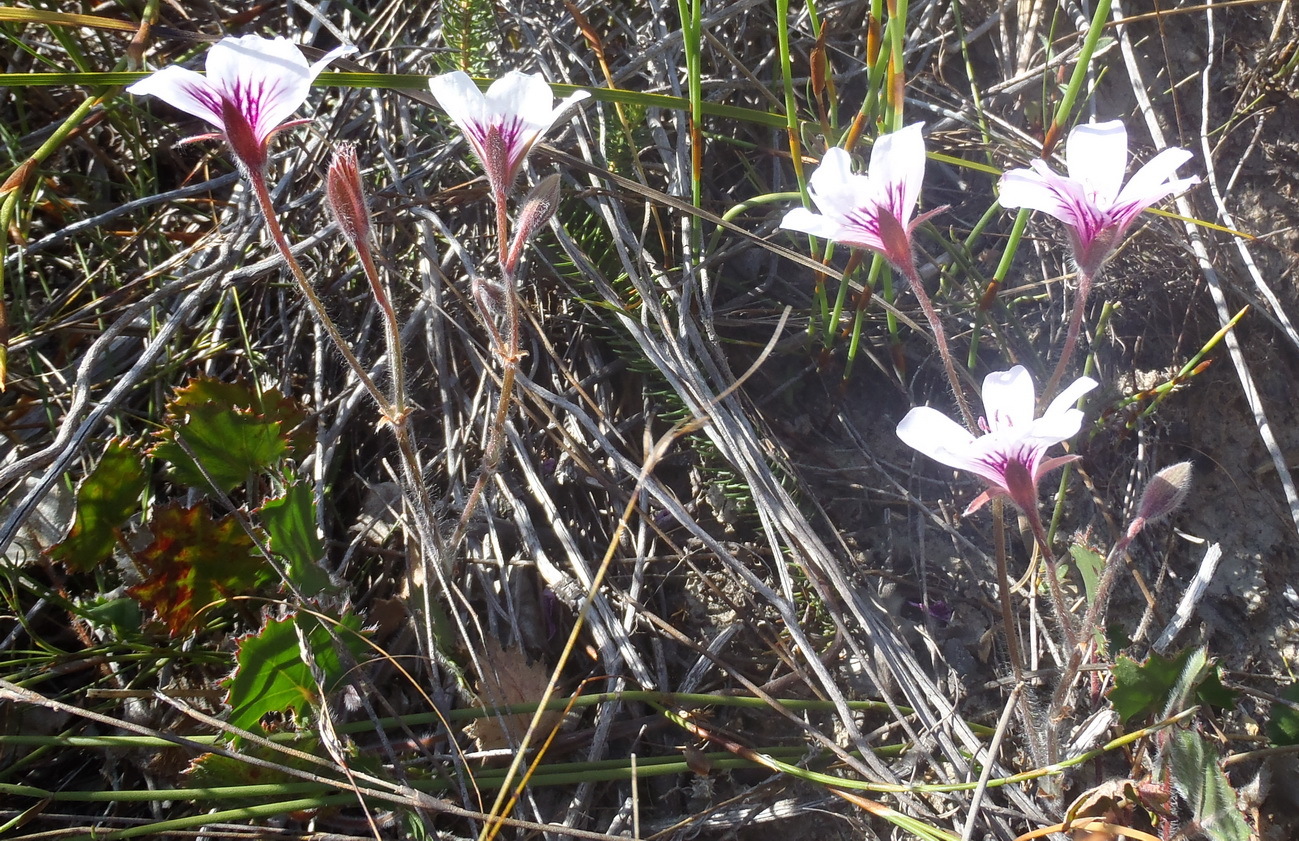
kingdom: Plantae
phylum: Tracheophyta
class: Magnoliopsida
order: Geraniales
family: Geraniaceae
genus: Pelargonium
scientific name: Pelargonium elegans
